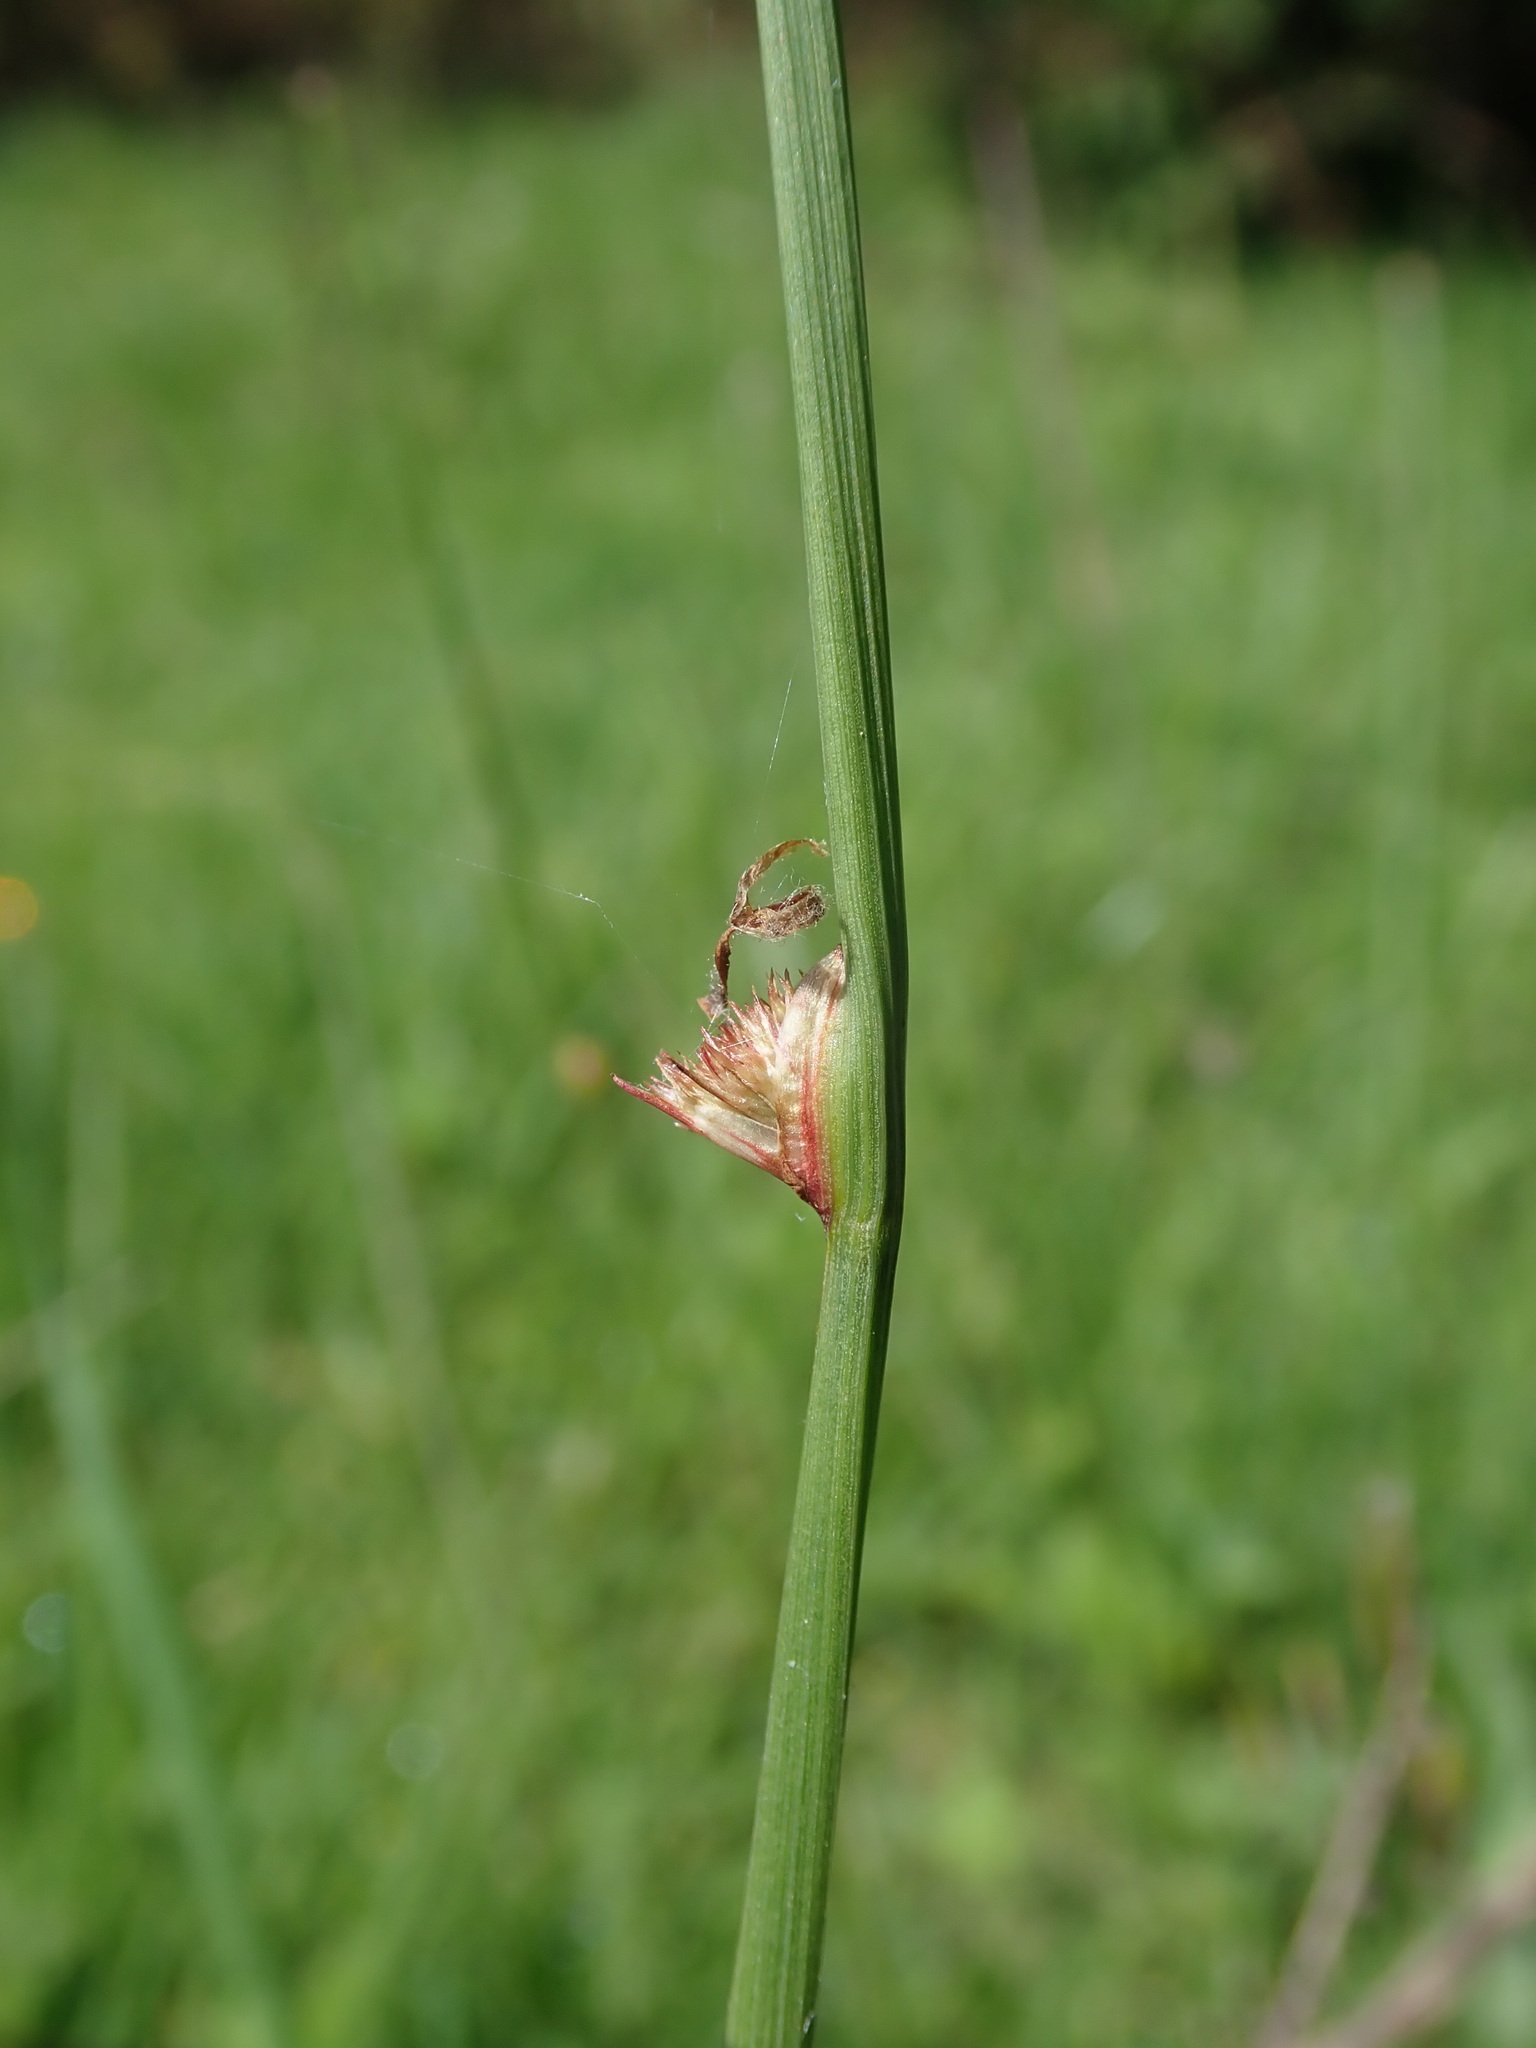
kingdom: Plantae
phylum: Tracheophyta
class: Liliopsida
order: Poales
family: Juncaceae
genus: Juncus
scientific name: Juncus effusus
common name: Soft rush
